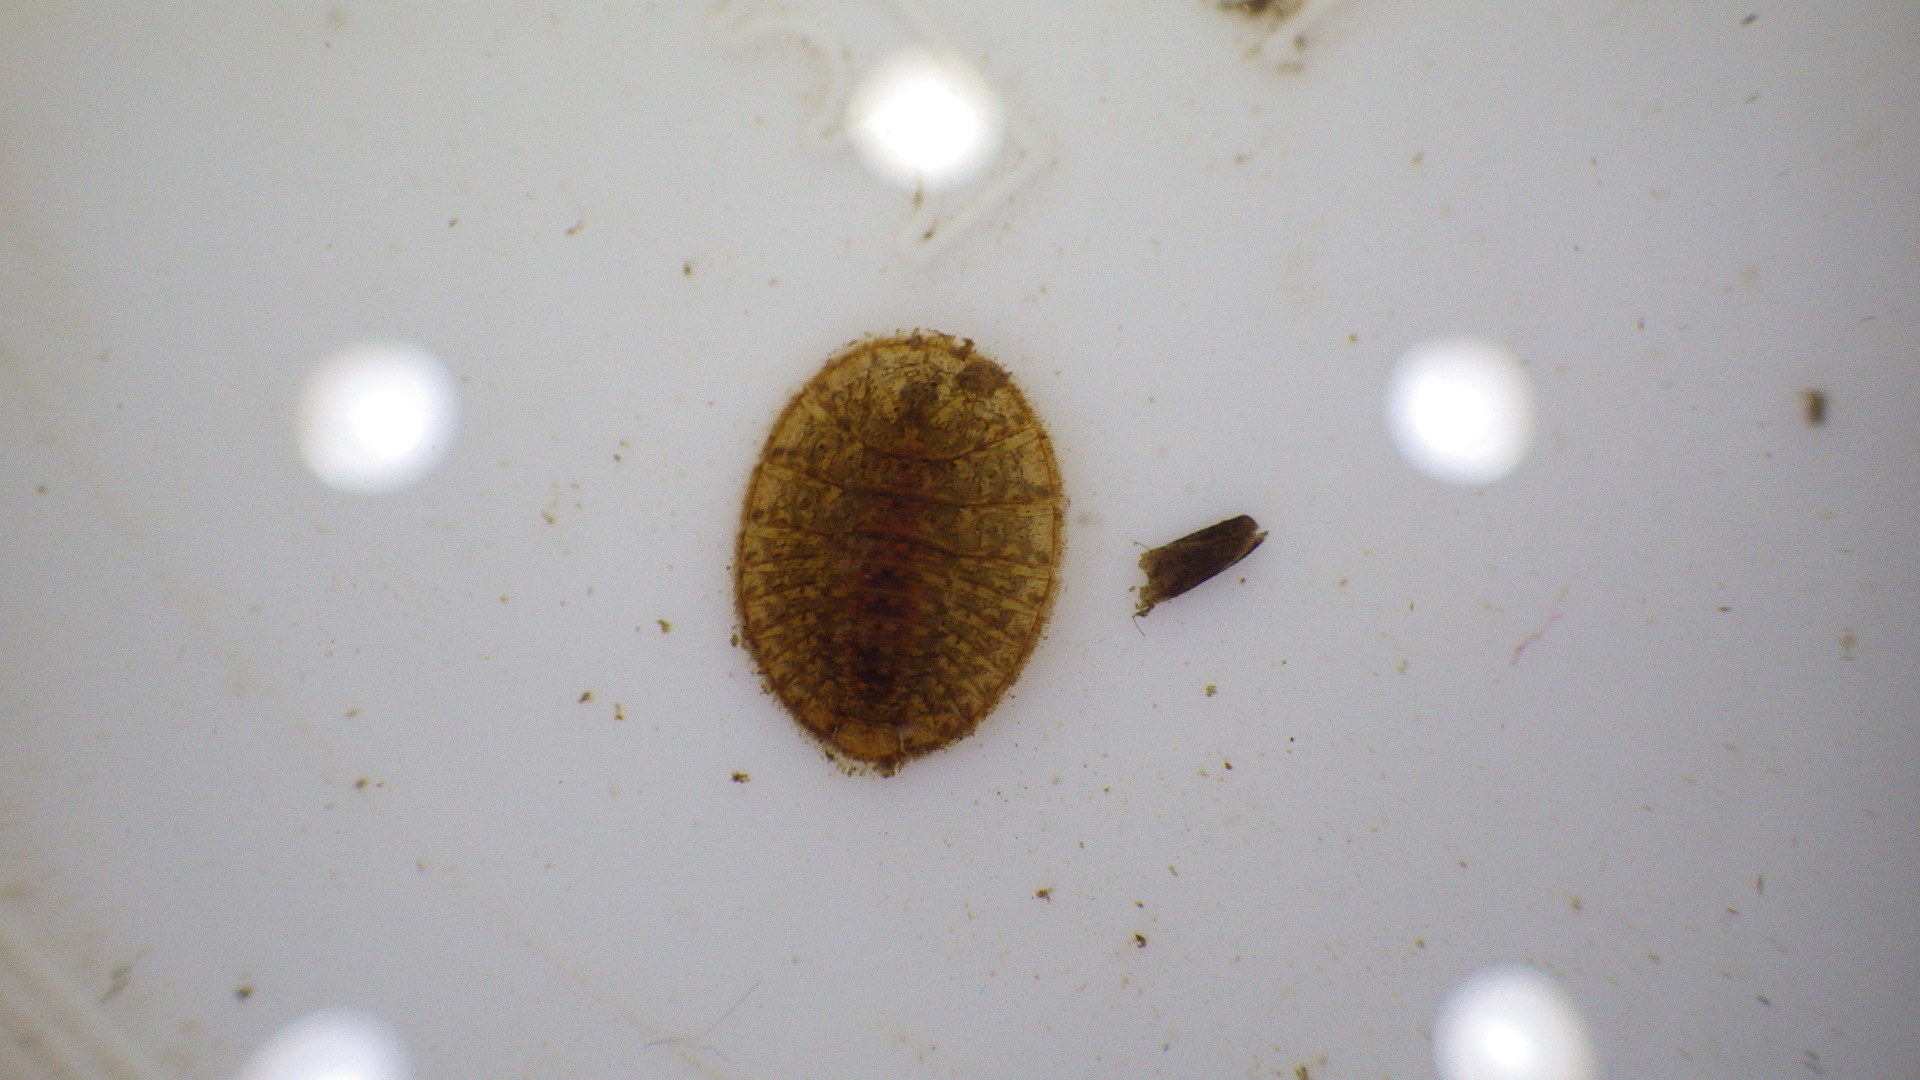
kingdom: Animalia
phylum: Arthropoda
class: Insecta
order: Coleoptera
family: Psephenidae
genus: Psephenus
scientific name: Psephenus herricki
